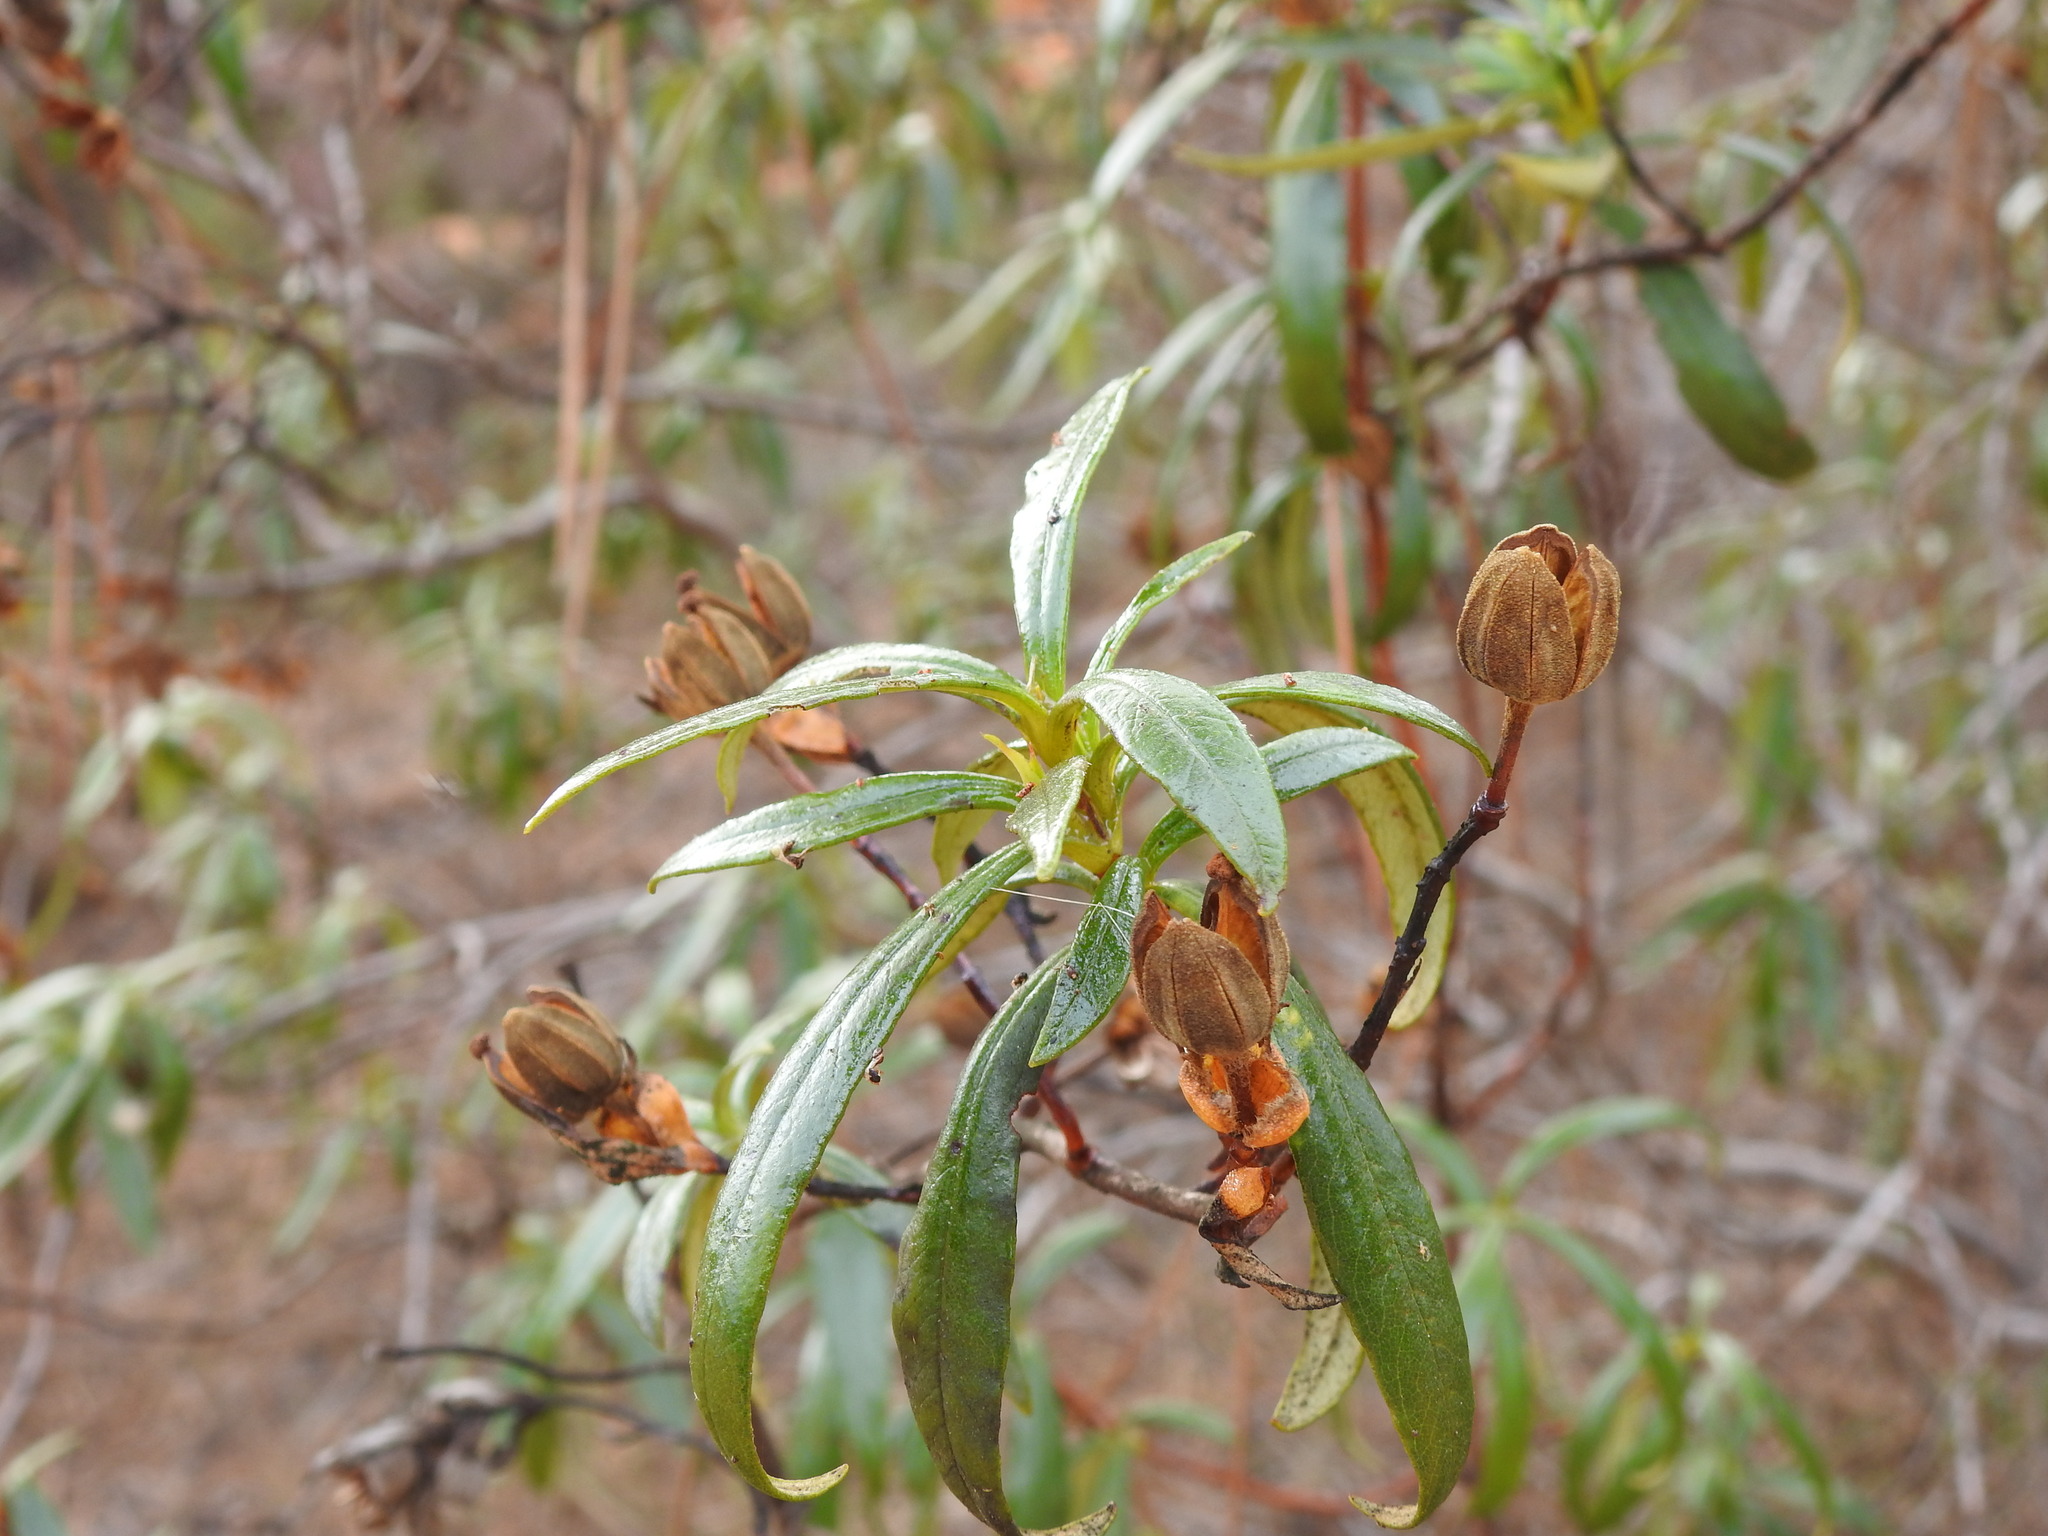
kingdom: Plantae
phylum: Tracheophyta
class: Magnoliopsida
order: Malvales
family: Cistaceae
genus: Cistus
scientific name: Cistus ladanifer
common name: Common gum cistus
